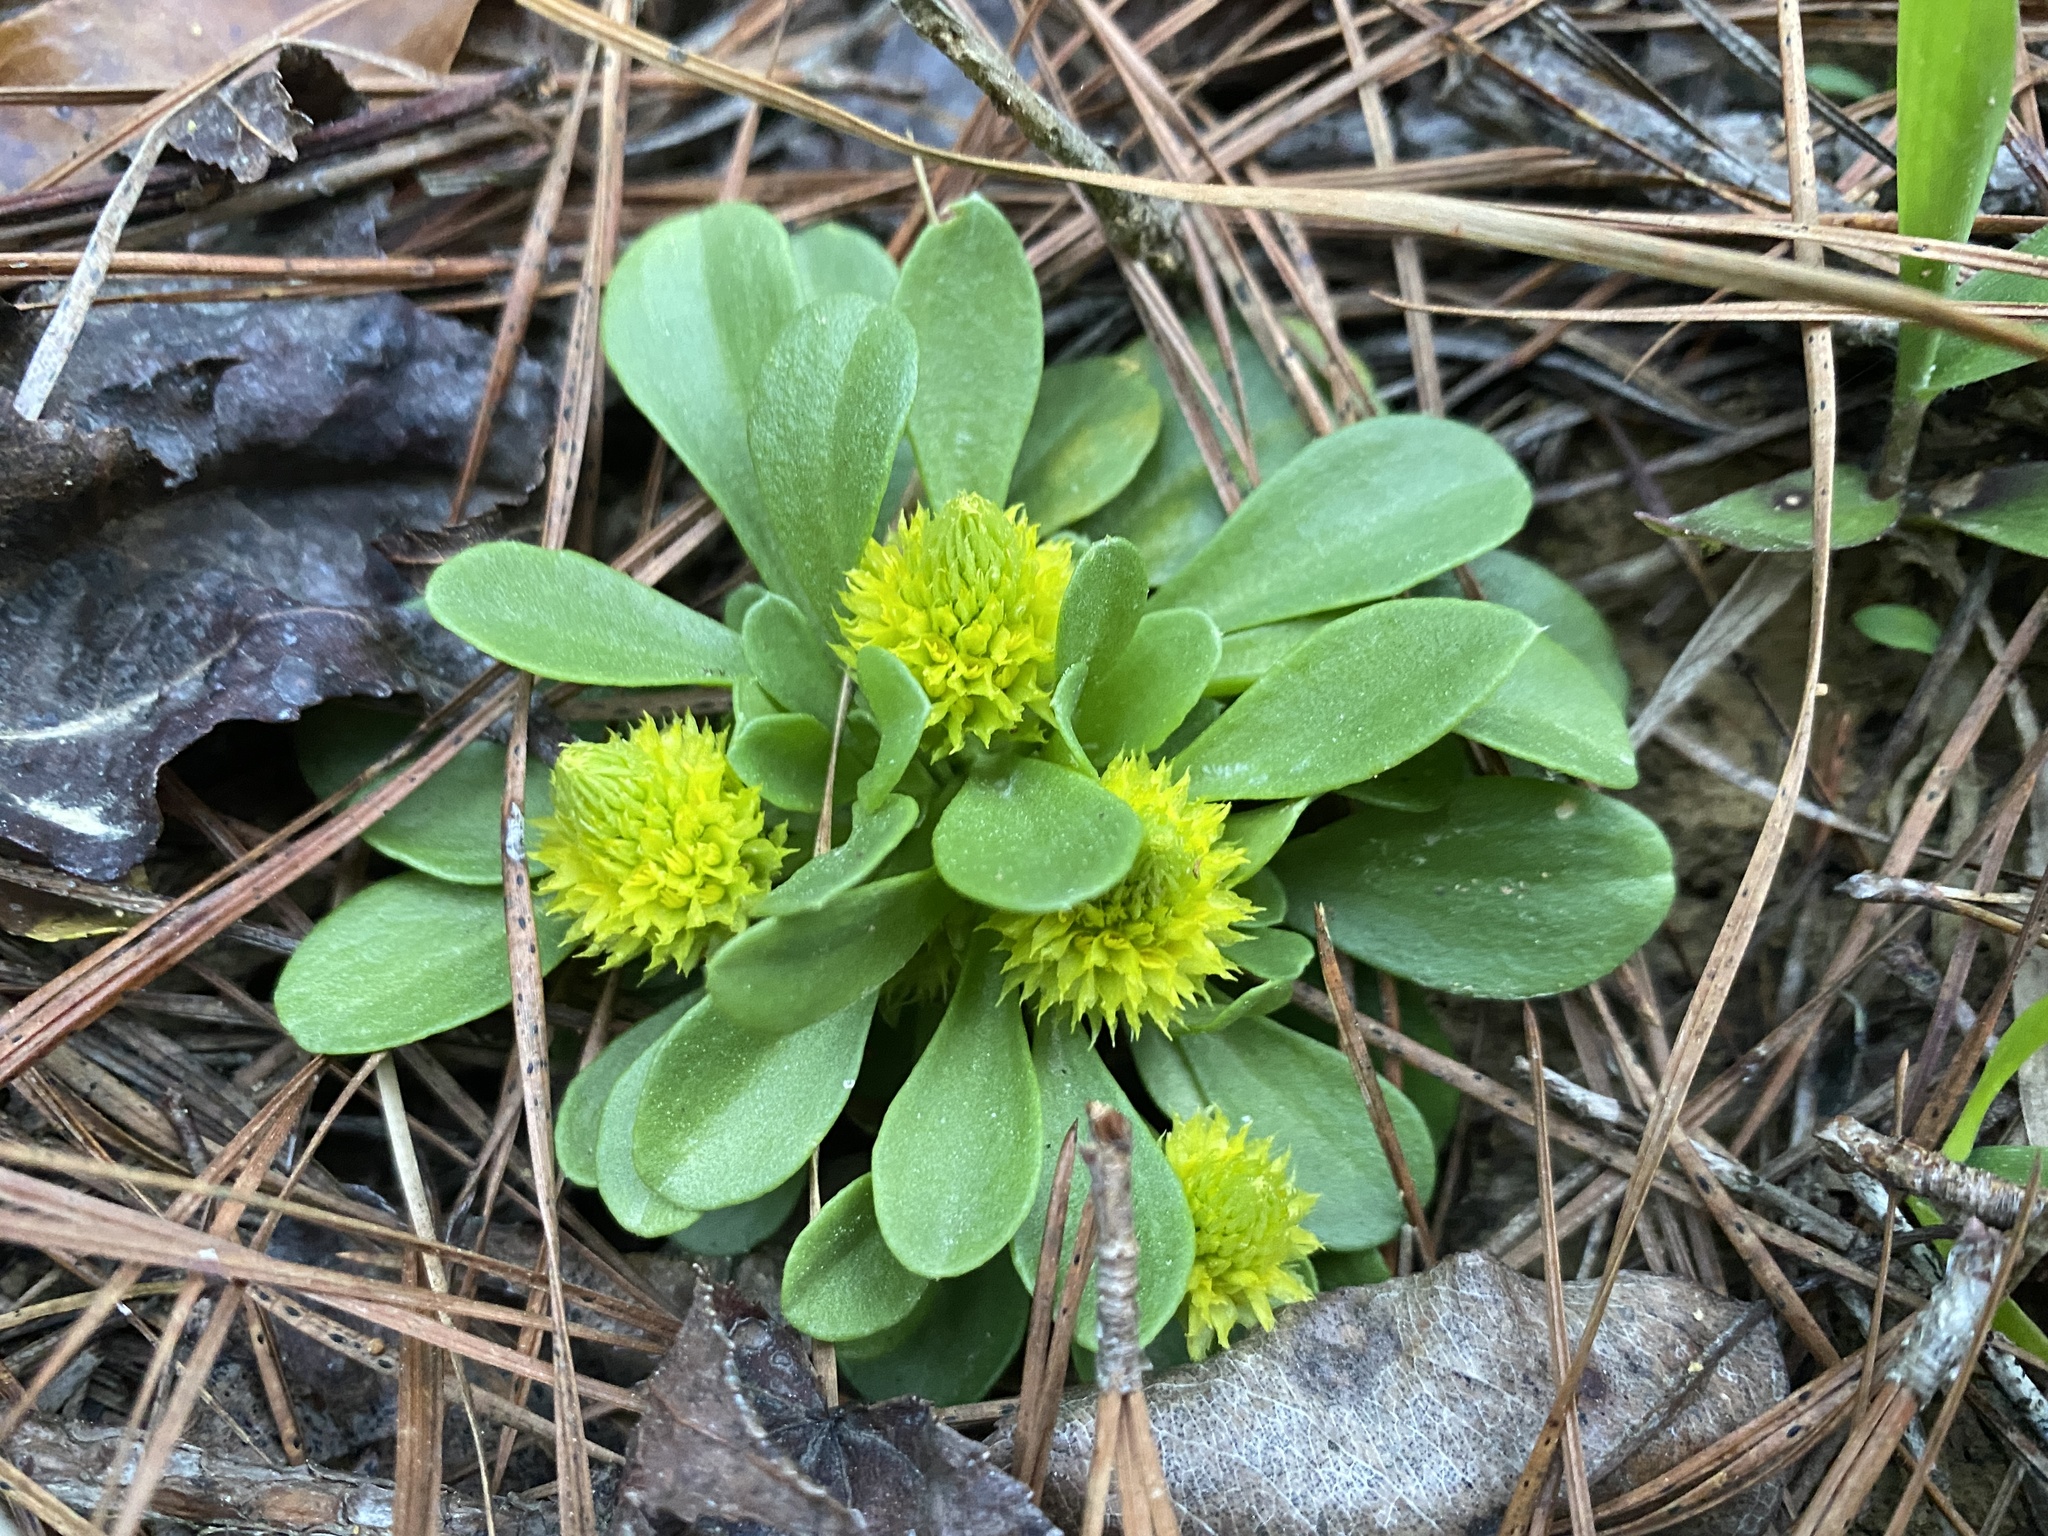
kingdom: Plantae
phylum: Tracheophyta
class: Magnoliopsida
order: Fabales
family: Polygalaceae
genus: Polygala
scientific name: Polygala nana
